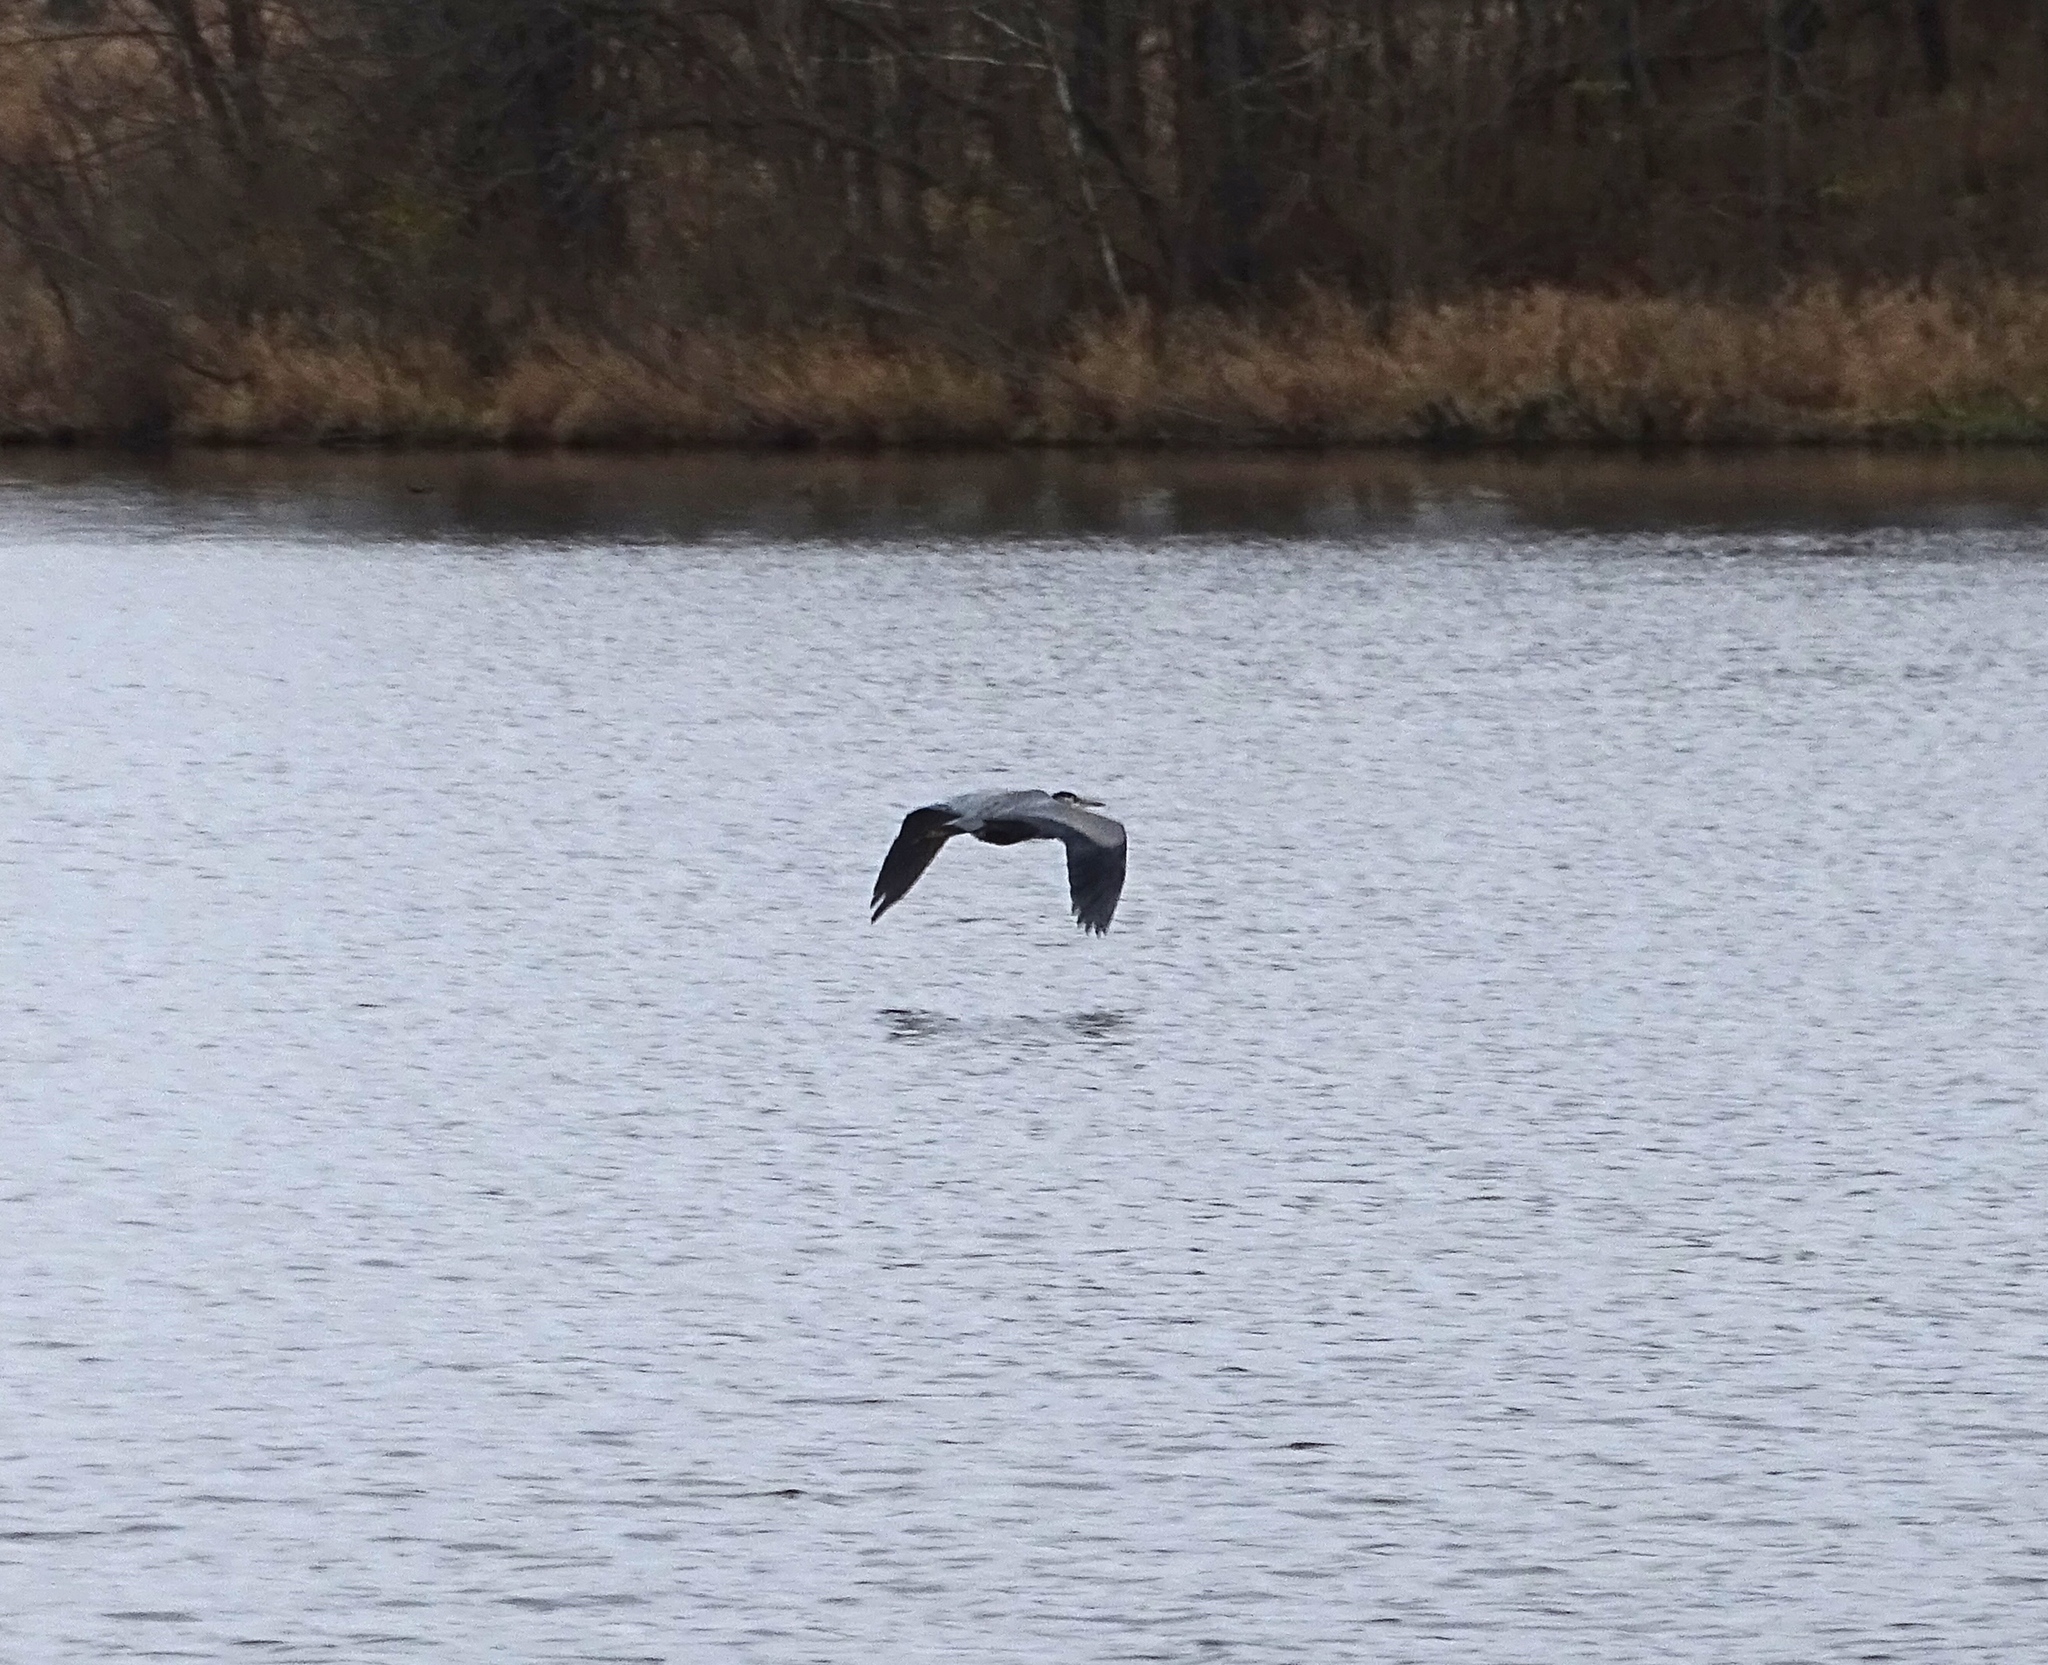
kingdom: Animalia
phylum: Chordata
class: Aves
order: Pelecaniformes
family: Ardeidae
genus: Ardea
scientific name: Ardea herodias
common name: Great blue heron
